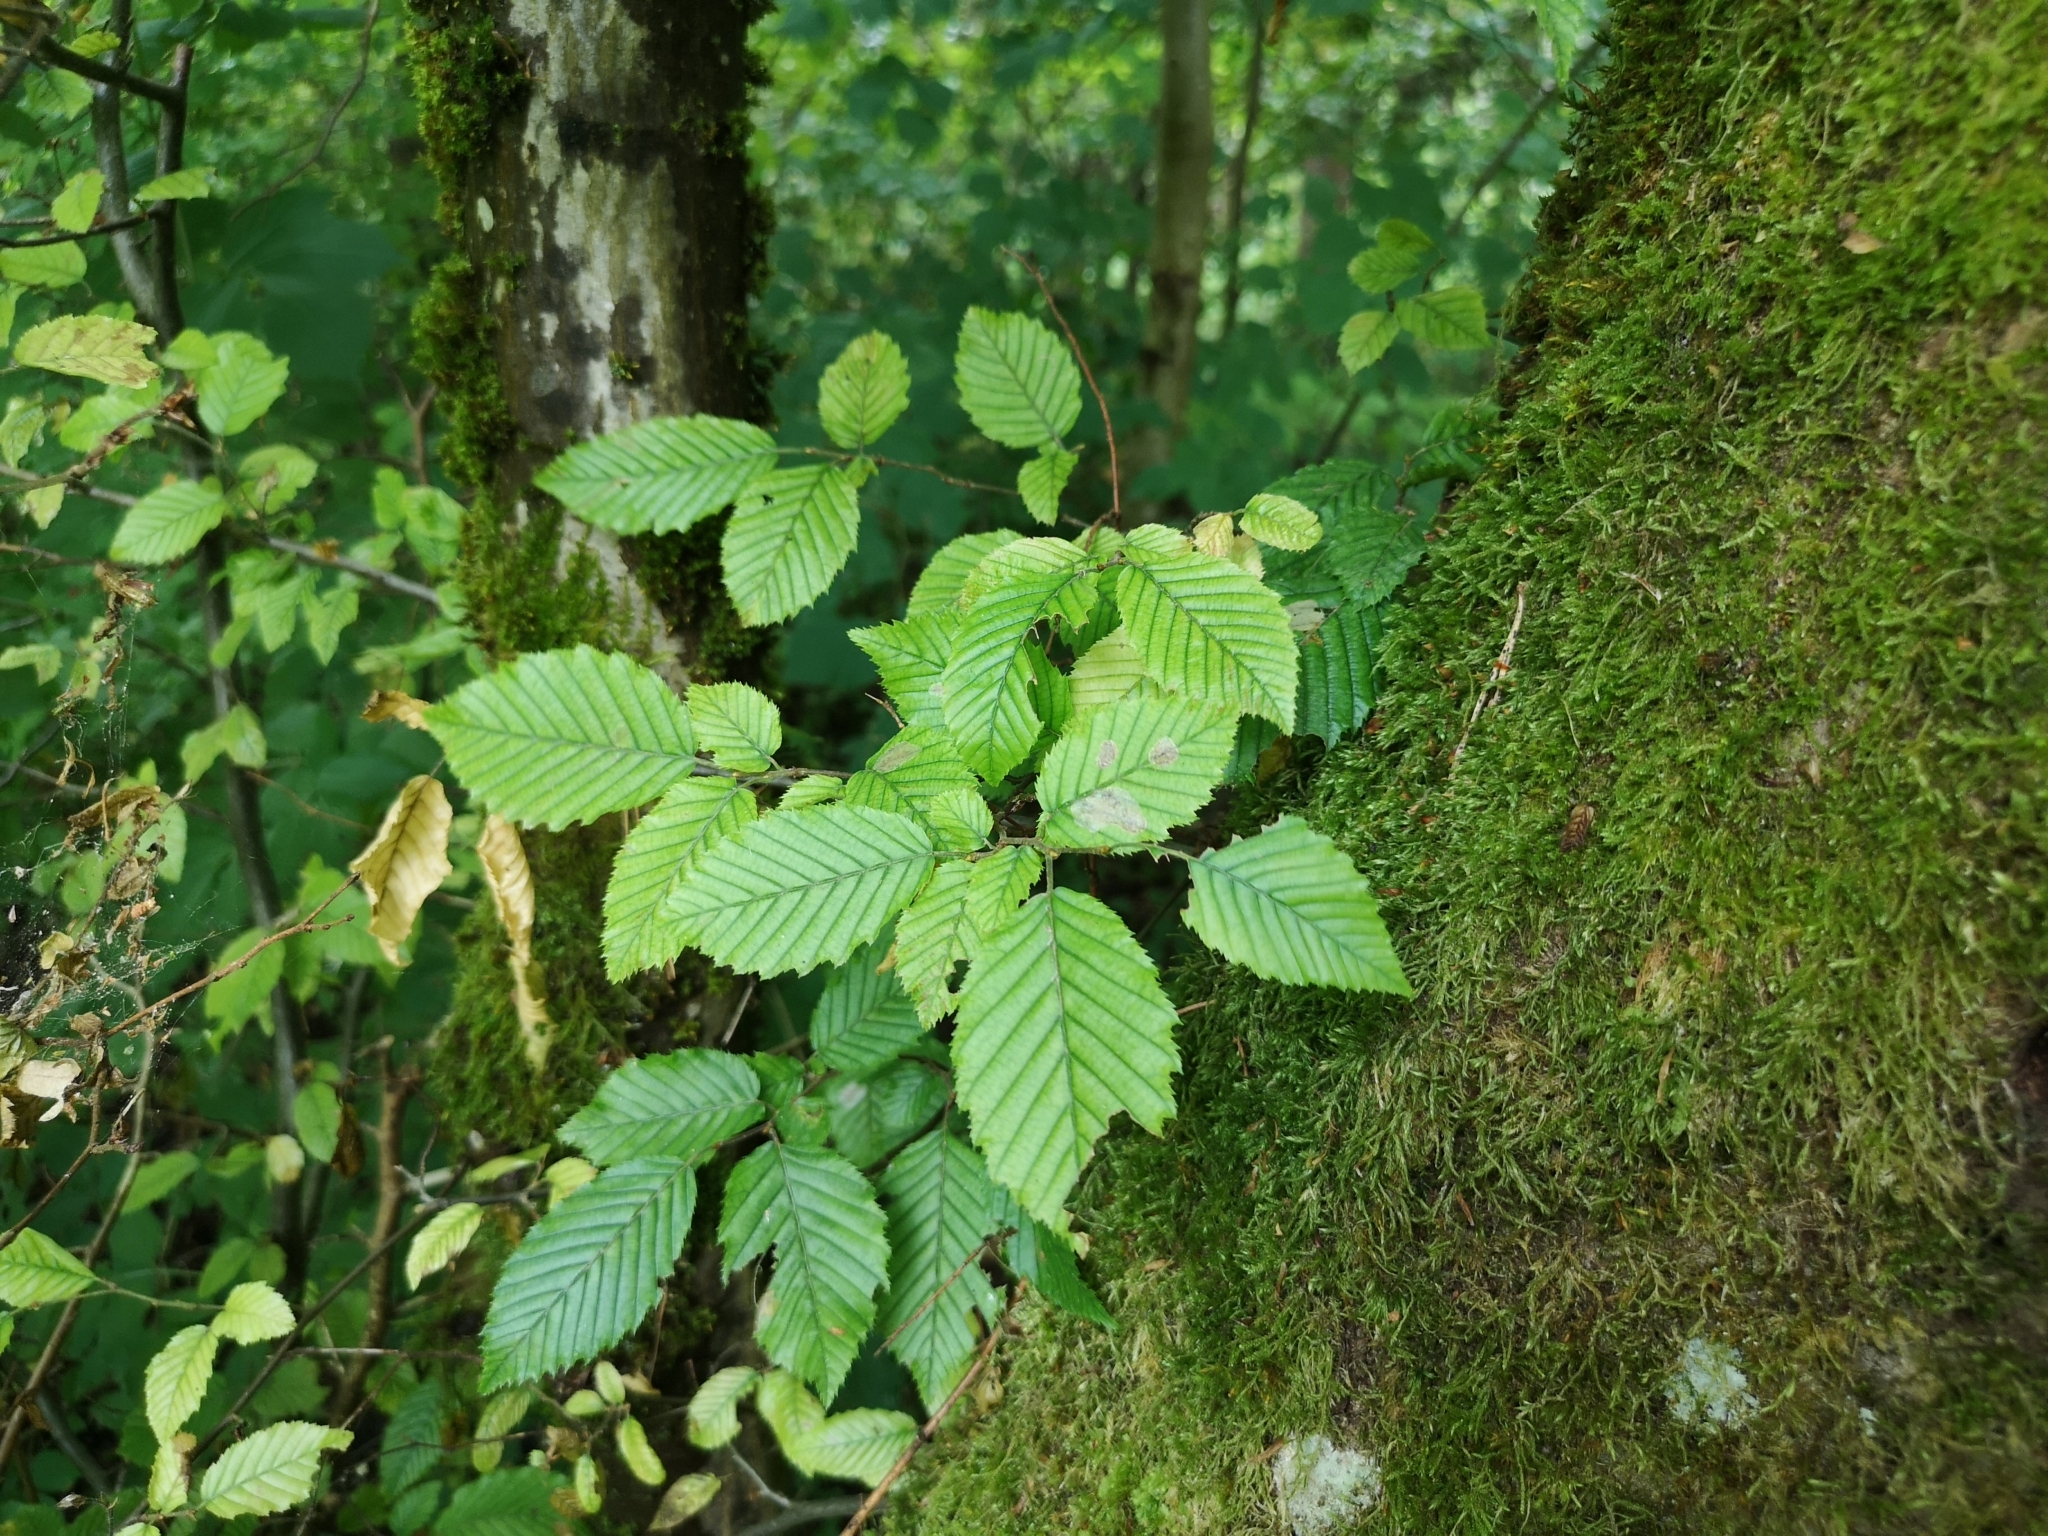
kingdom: Plantae
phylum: Tracheophyta
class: Magnoliopsida
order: Fagales
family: Betulaceae
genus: Carpinus
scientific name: Carpinus betulus
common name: Hornbeam
